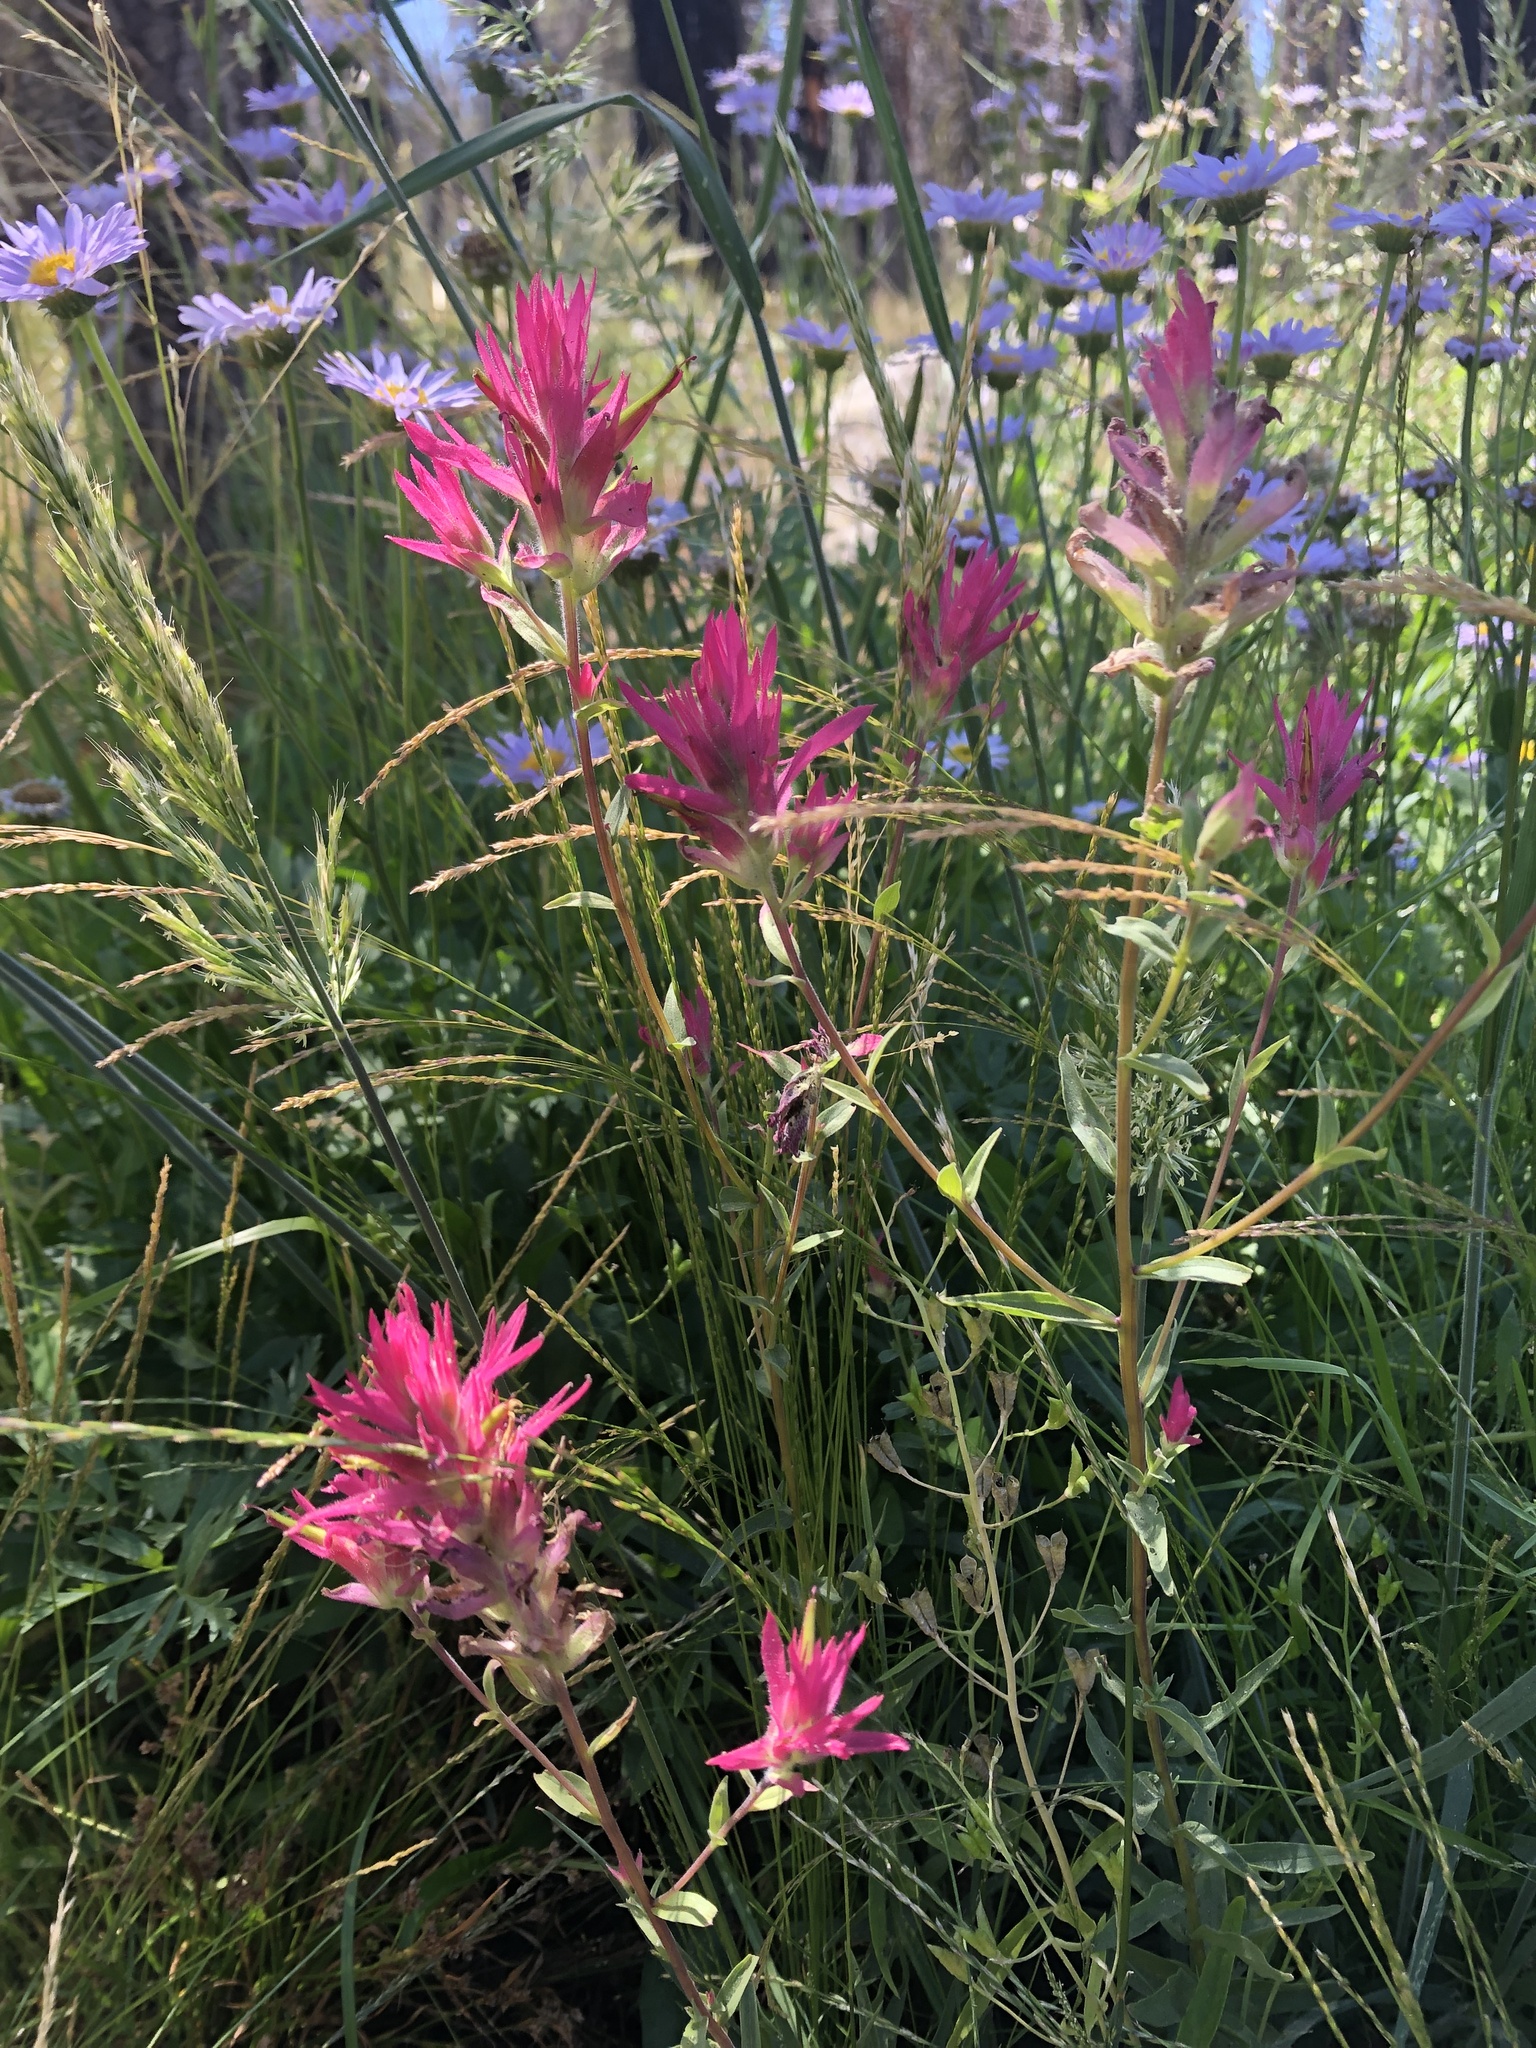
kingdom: Plantae
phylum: Tracheophyta
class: Magnoliopsida
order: Lamiales
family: Orobanchaceae
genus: Castilleja
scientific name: Castilleja miniata
